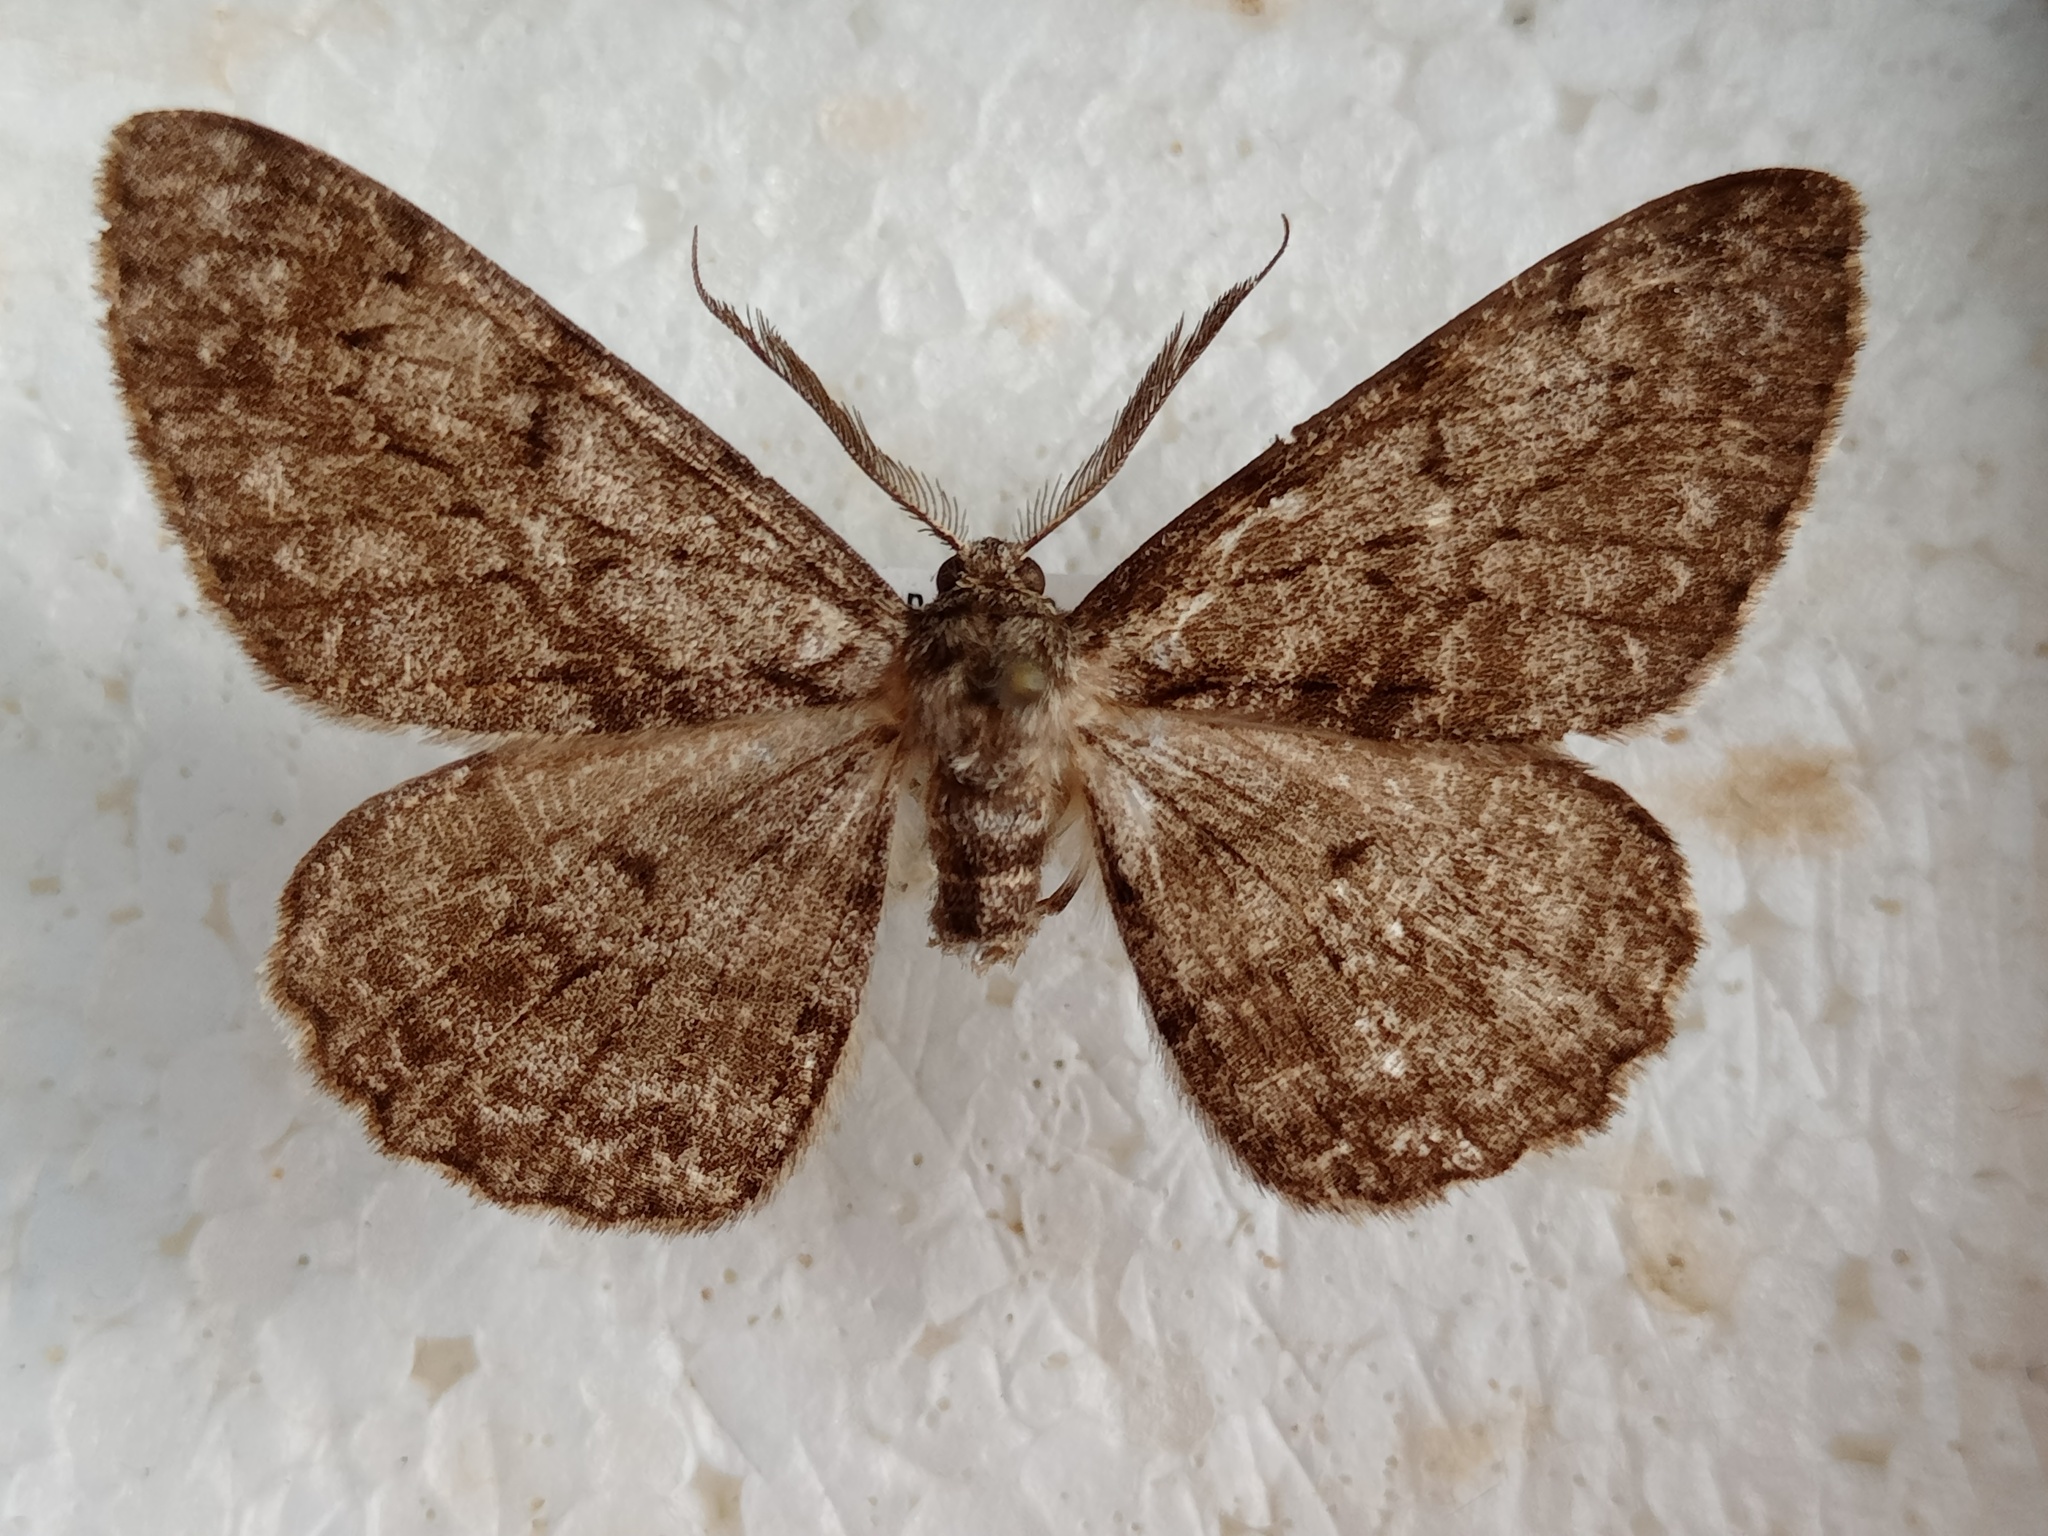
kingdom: Animalia
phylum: Arthropoda
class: Insecta
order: Lepidoptera
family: Geometridae
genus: Hypomecis
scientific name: Hypomecis roboraria
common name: Great oak beauty
